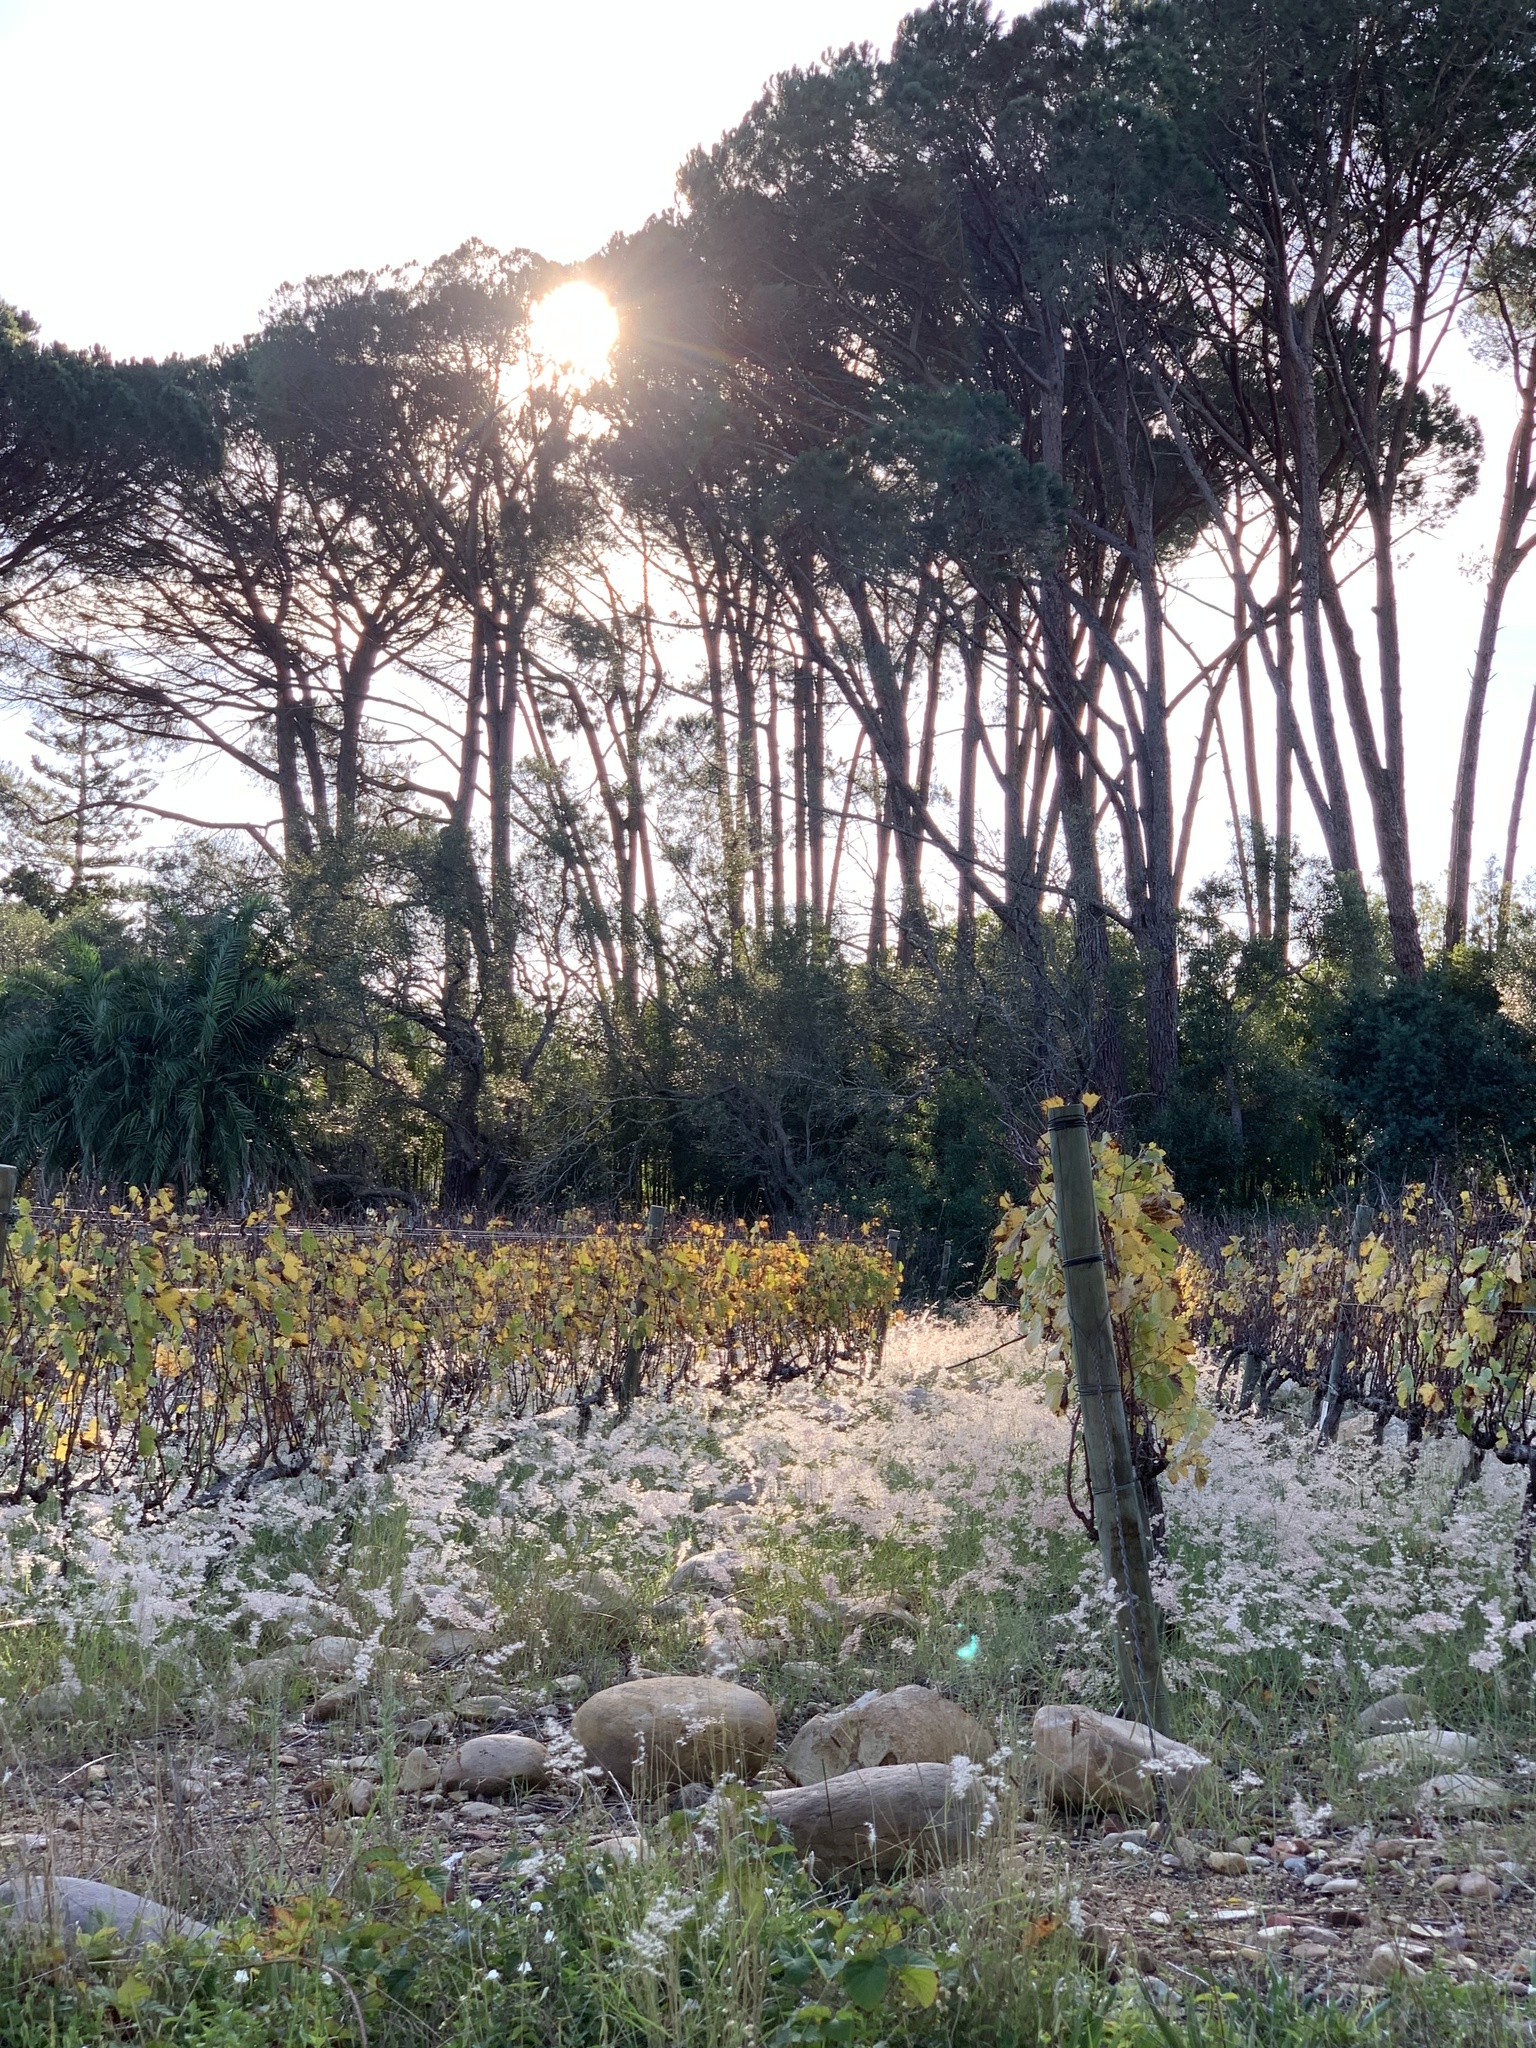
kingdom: Plantae
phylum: Tracheophyta
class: Liliopsida
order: Poales
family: Poaceae
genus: Melinis
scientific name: Melinis repens
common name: Rose natal grass
